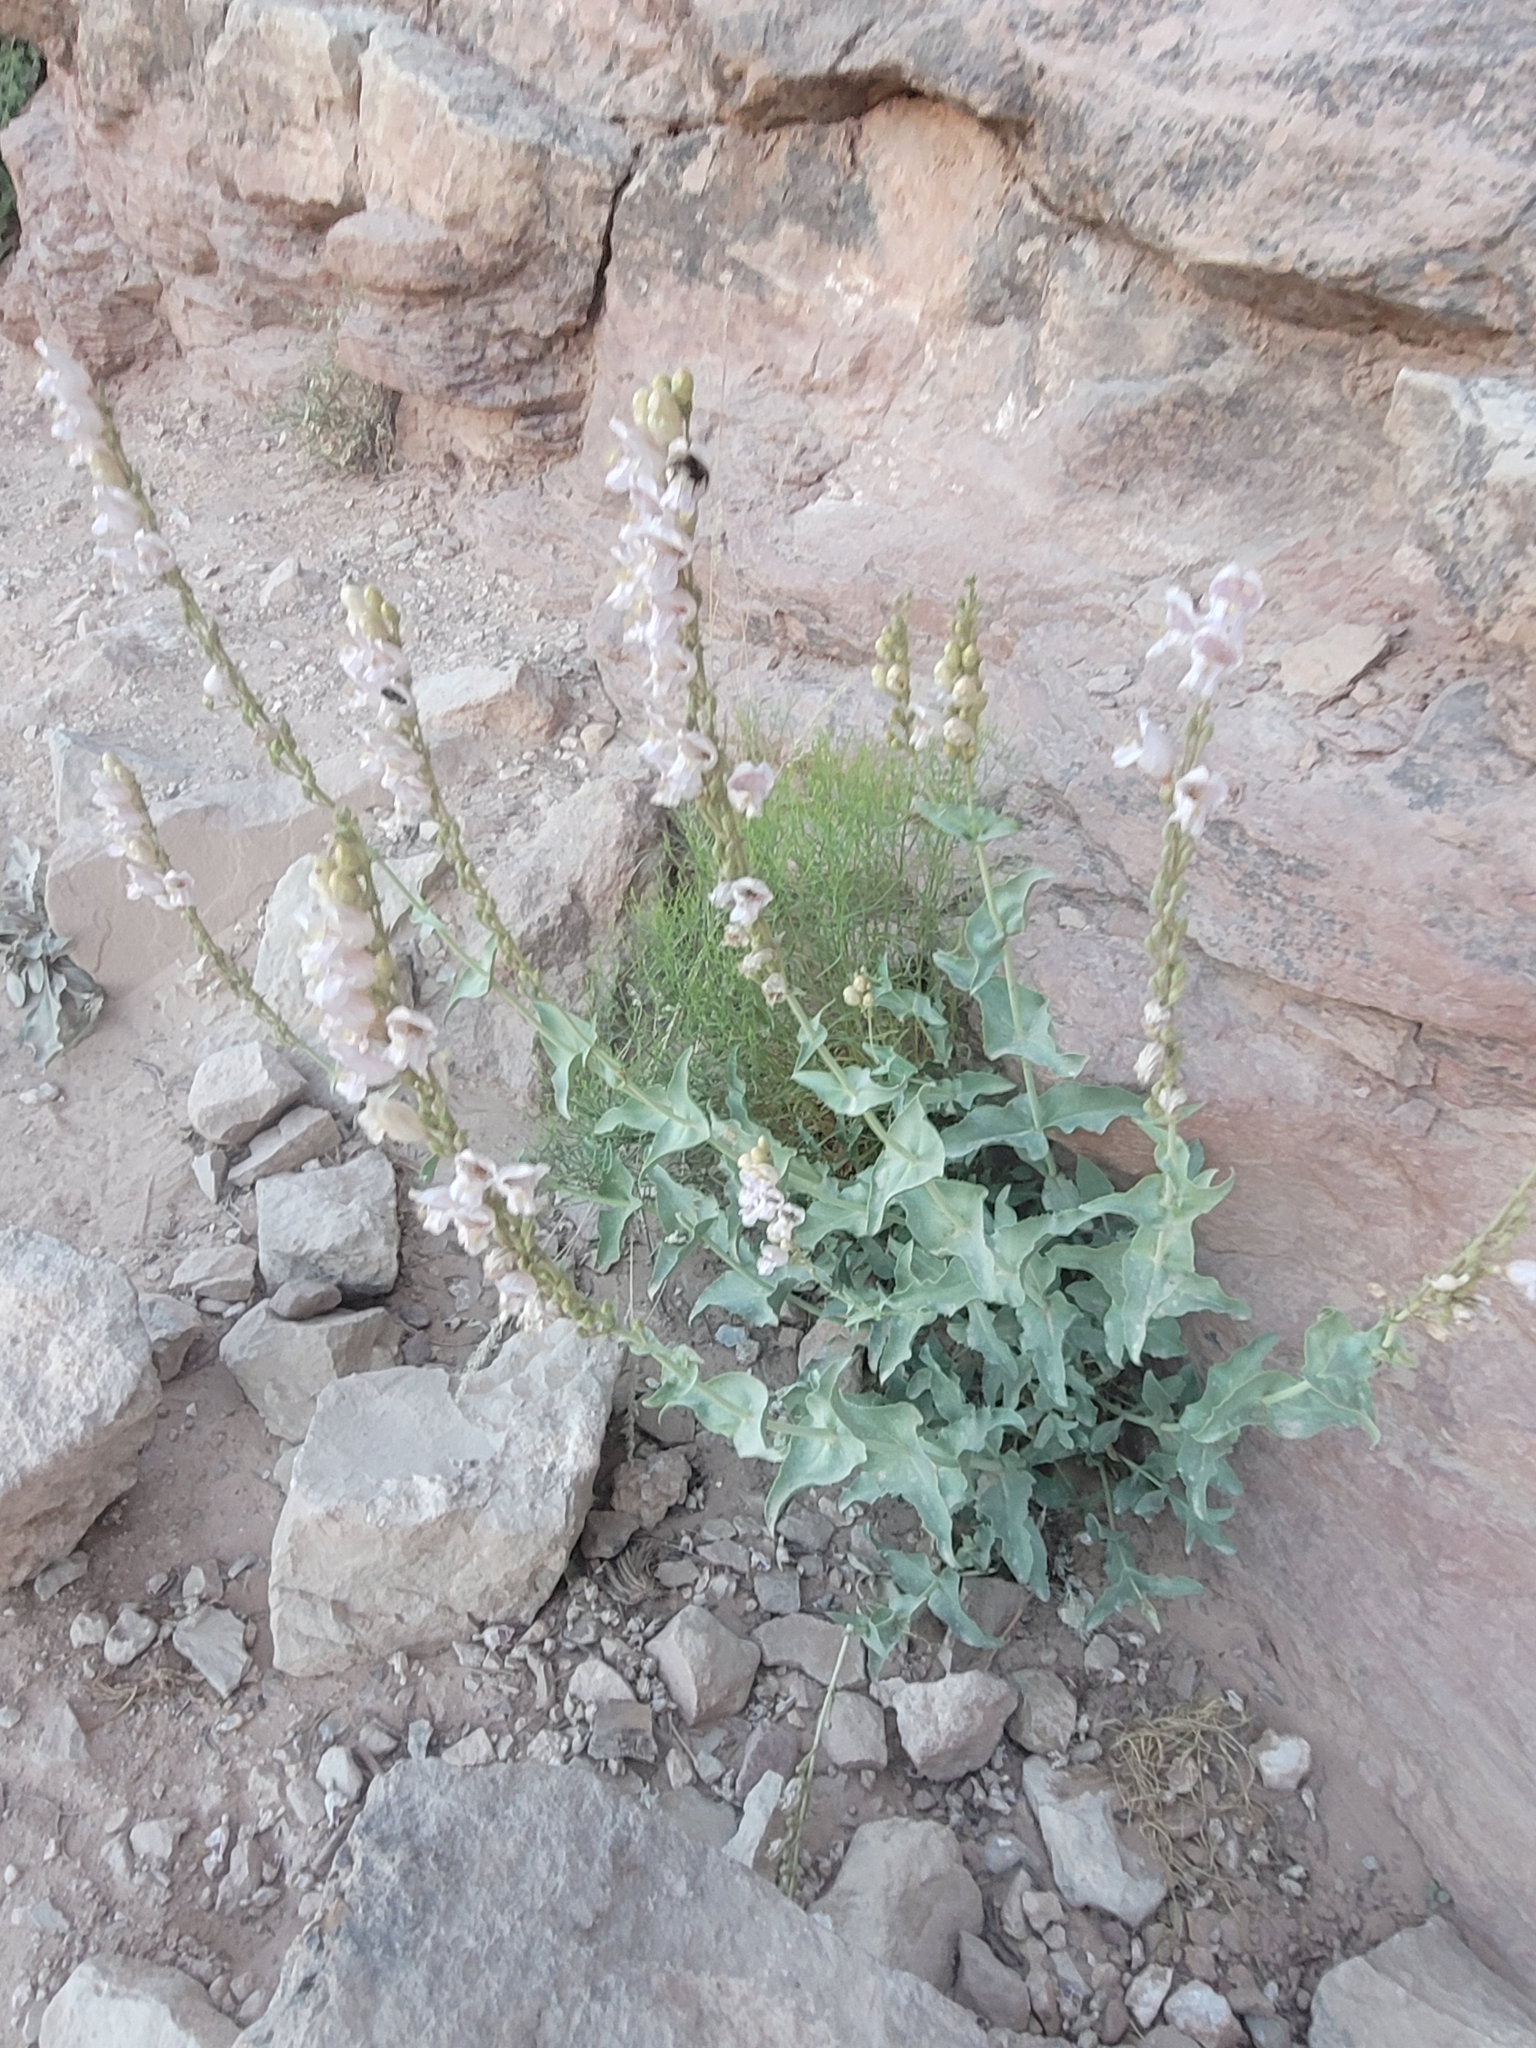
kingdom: Plantae
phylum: Tracheophyta
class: Magnoliopsida
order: Lamiales
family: Plantaginaceae
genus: Penstemon
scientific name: Penstemon palmeri
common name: Palmer penstemon
